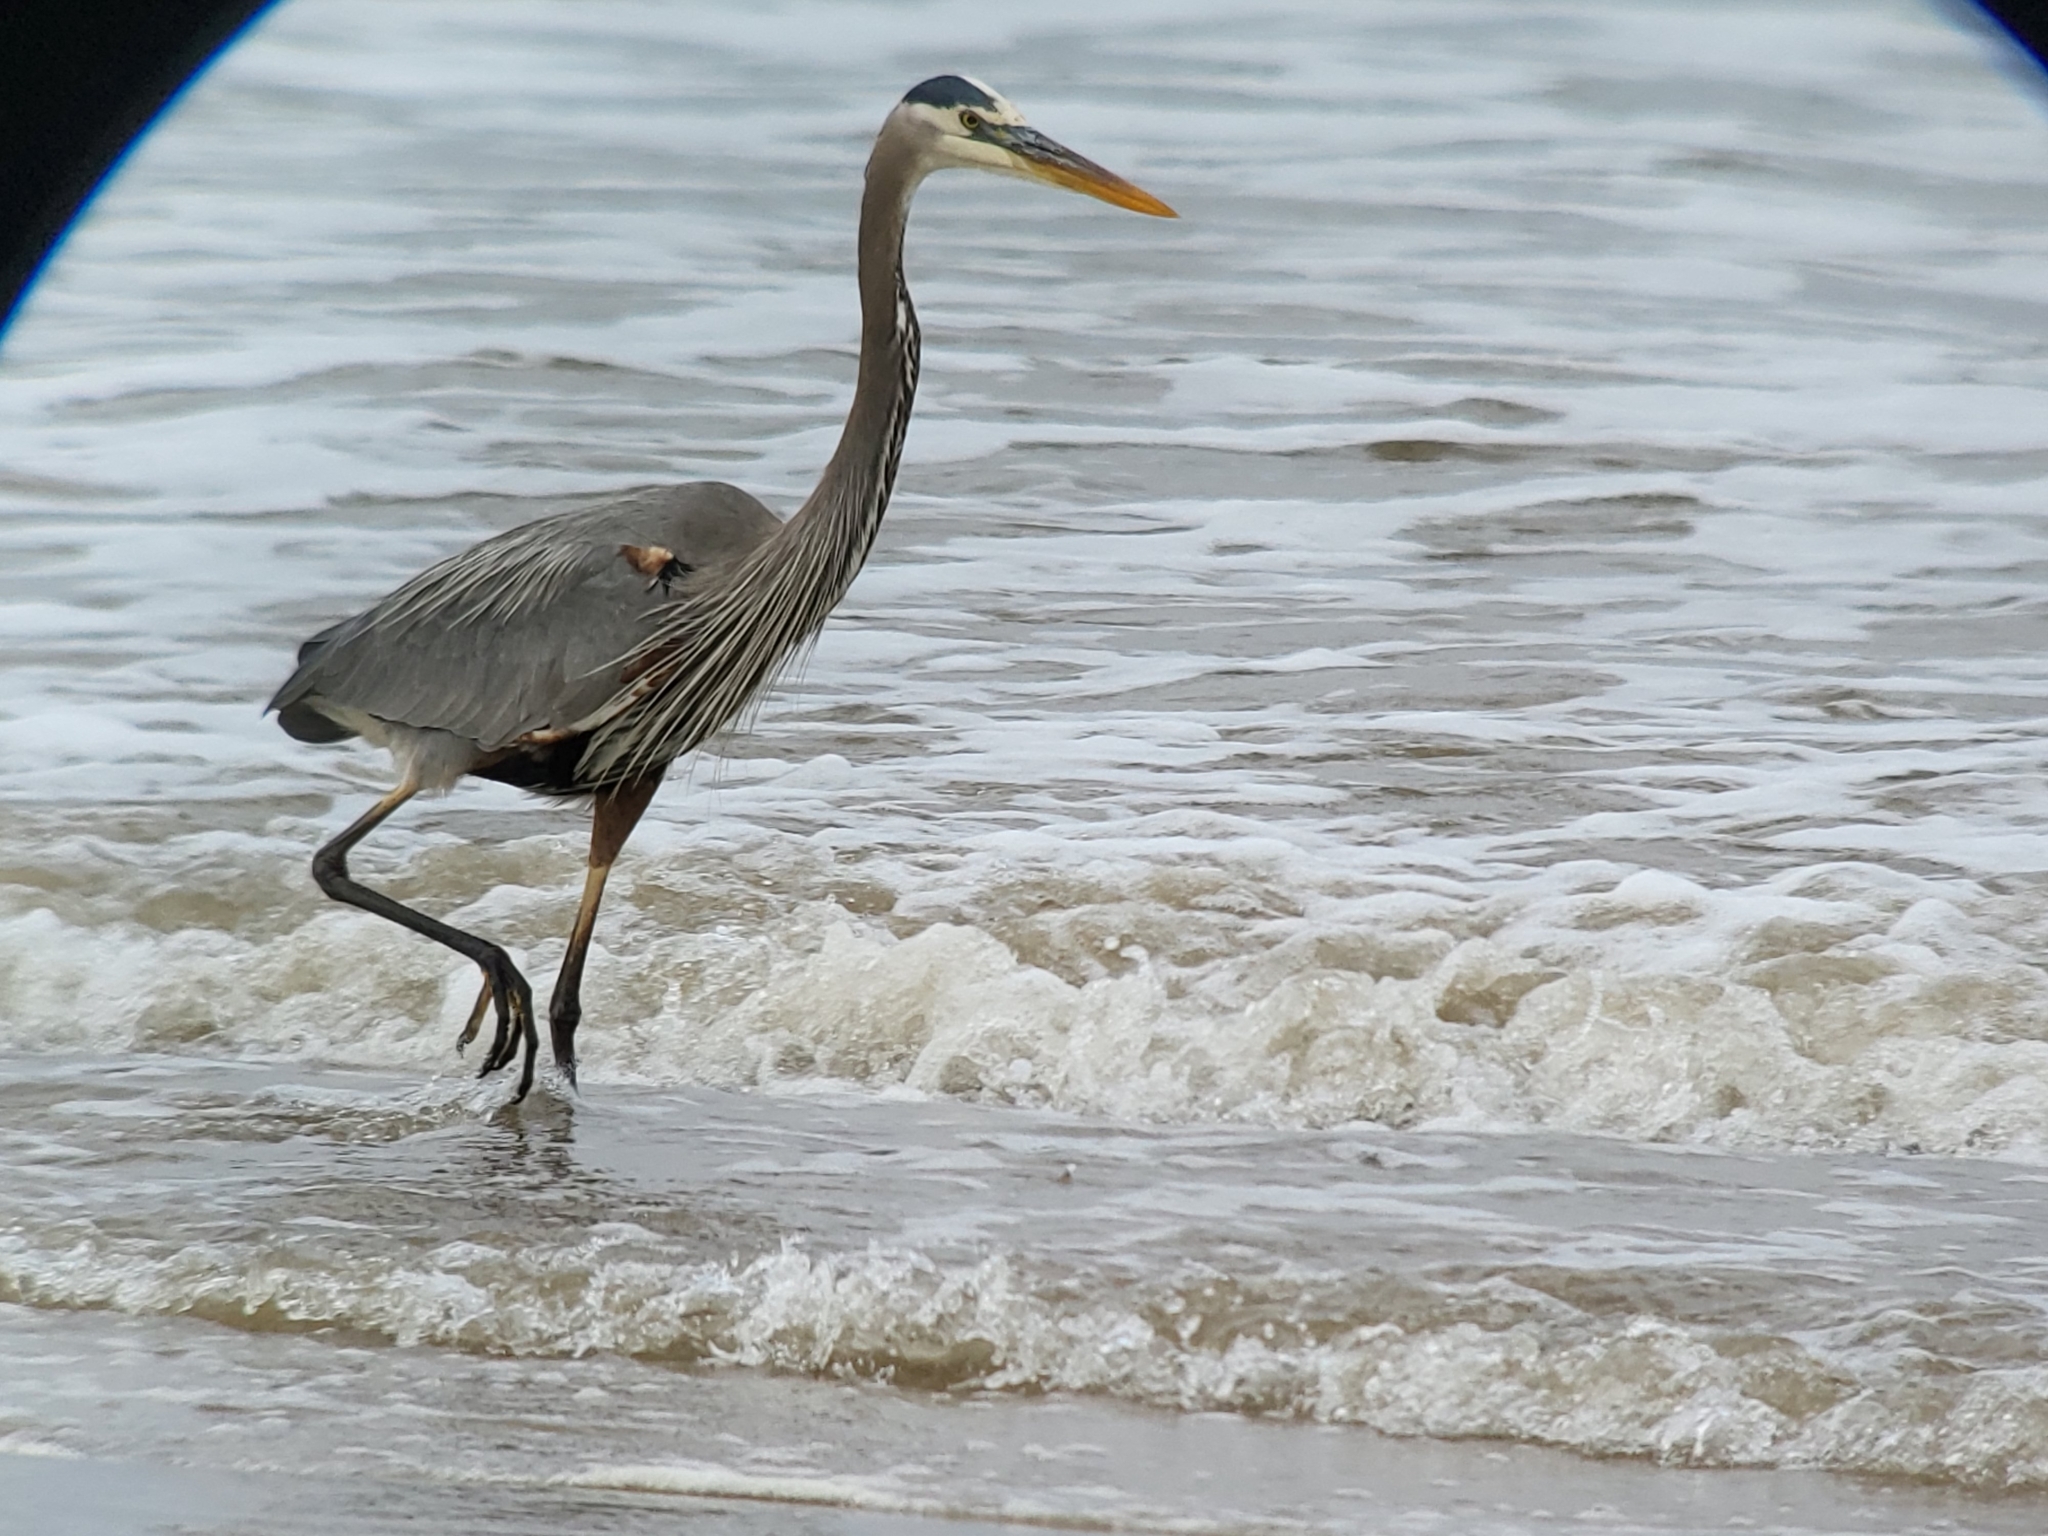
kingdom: Animalia
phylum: Chordata
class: Aves
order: Pelecaniformes
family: Ardeidae
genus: Ardea
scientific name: Ardea herodias
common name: Great blue heron
